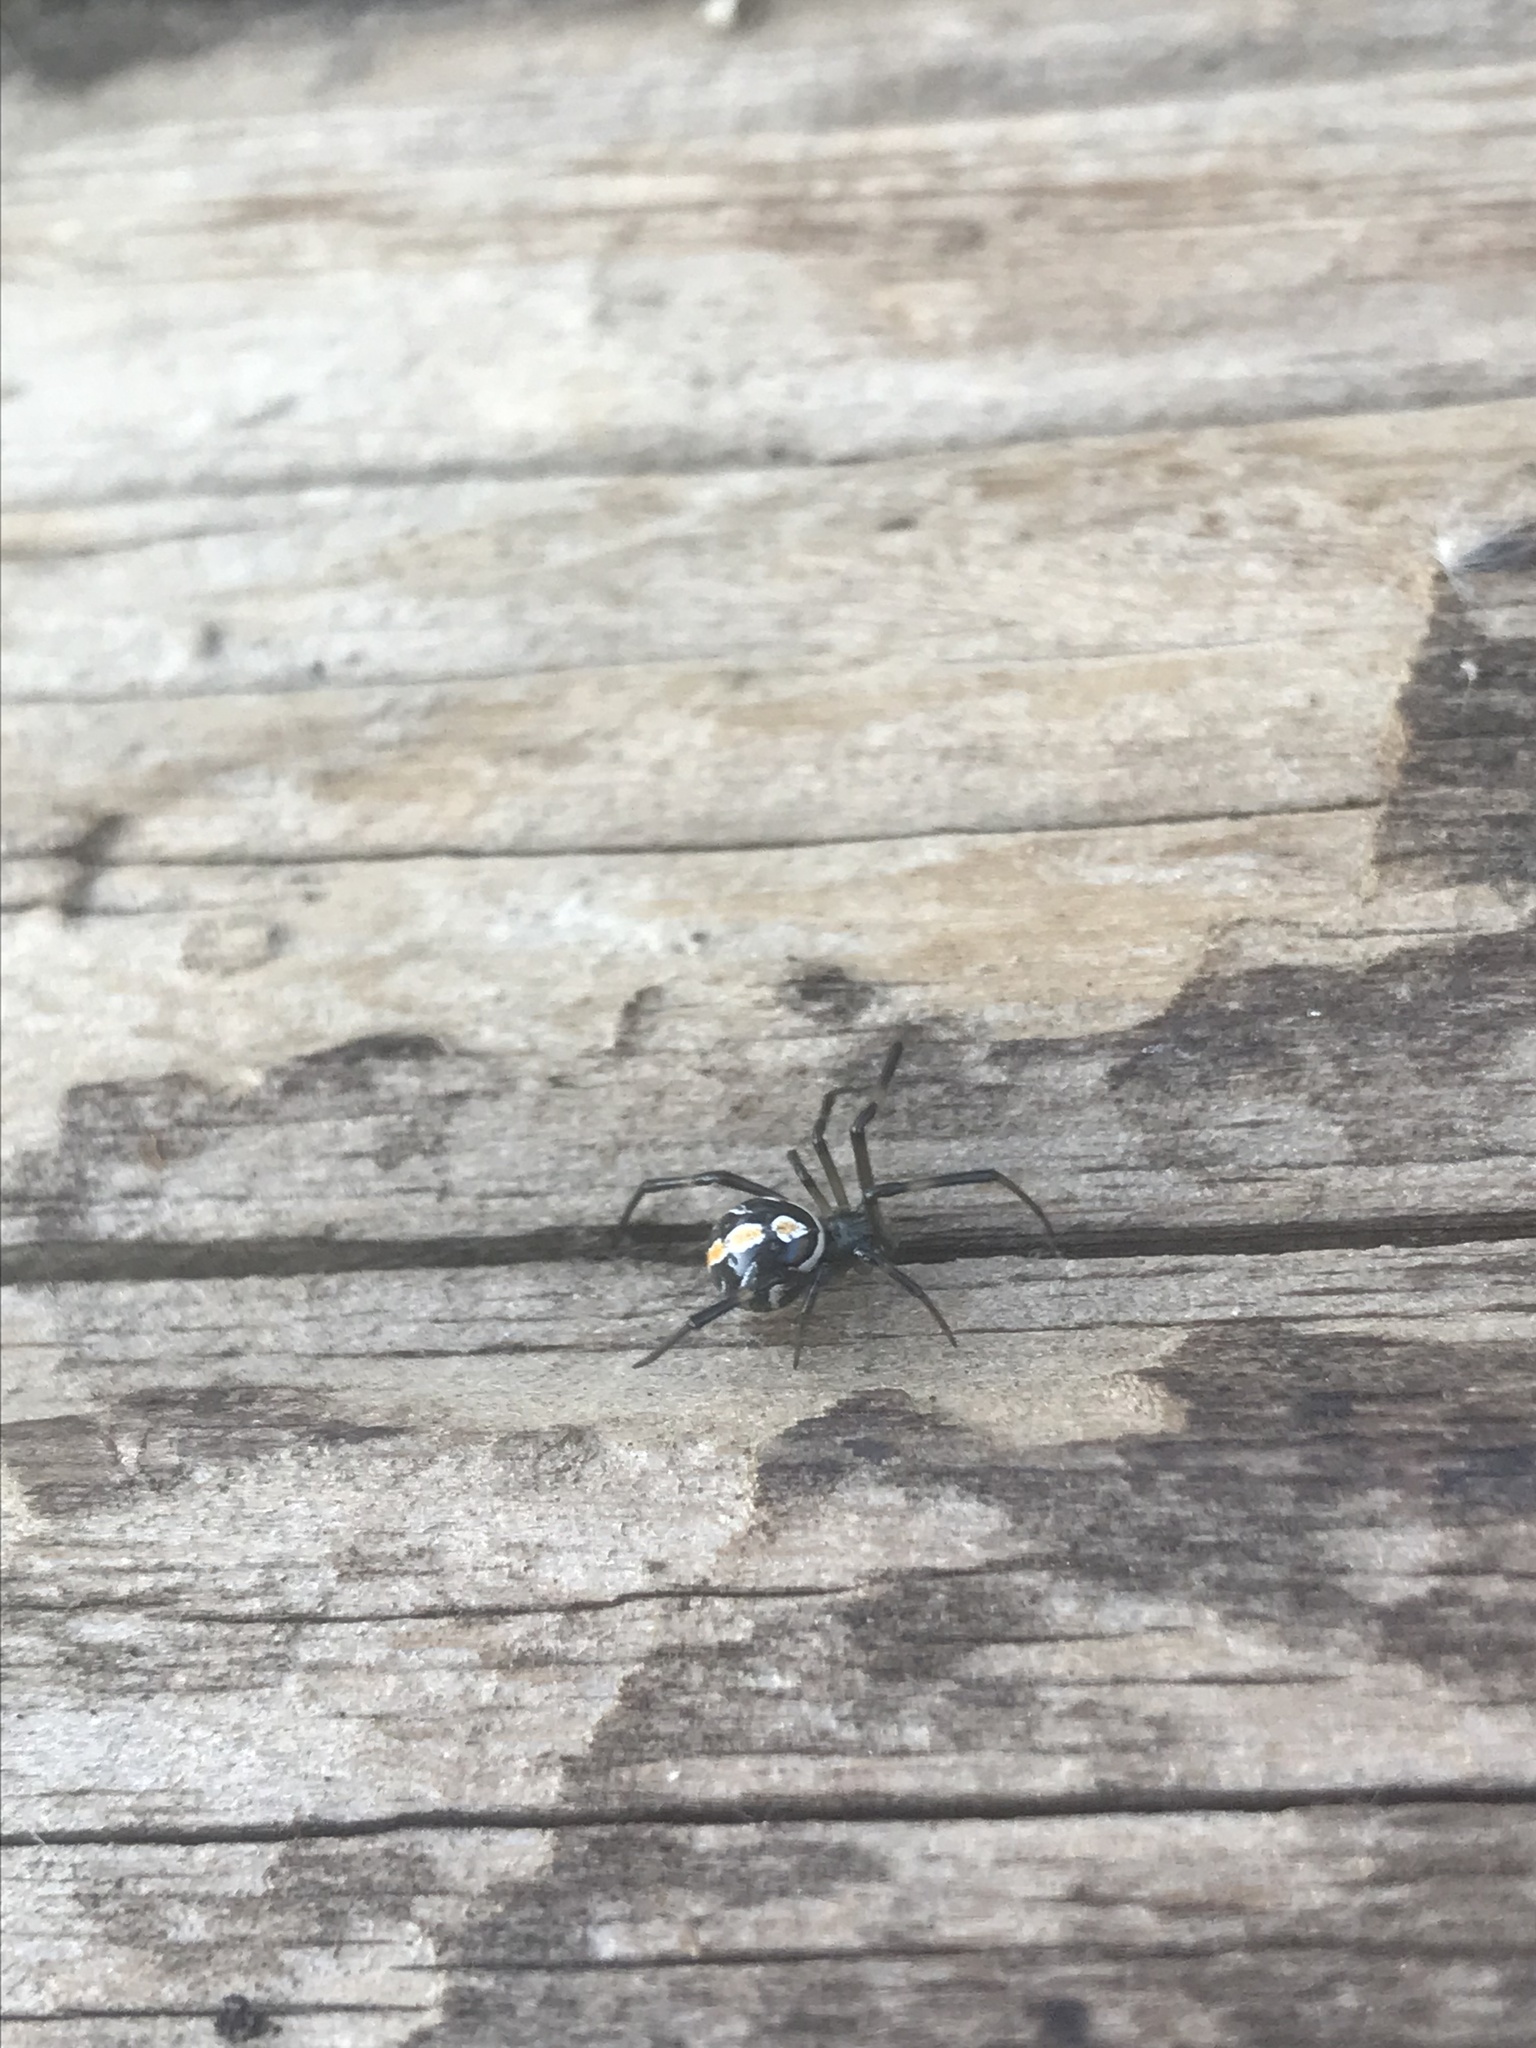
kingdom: Animalia
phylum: Arthropoda
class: Arachnida
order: Araneae
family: Theridiidae
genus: Latrodectus
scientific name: Latrodectus hesperus
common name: Western black widow
